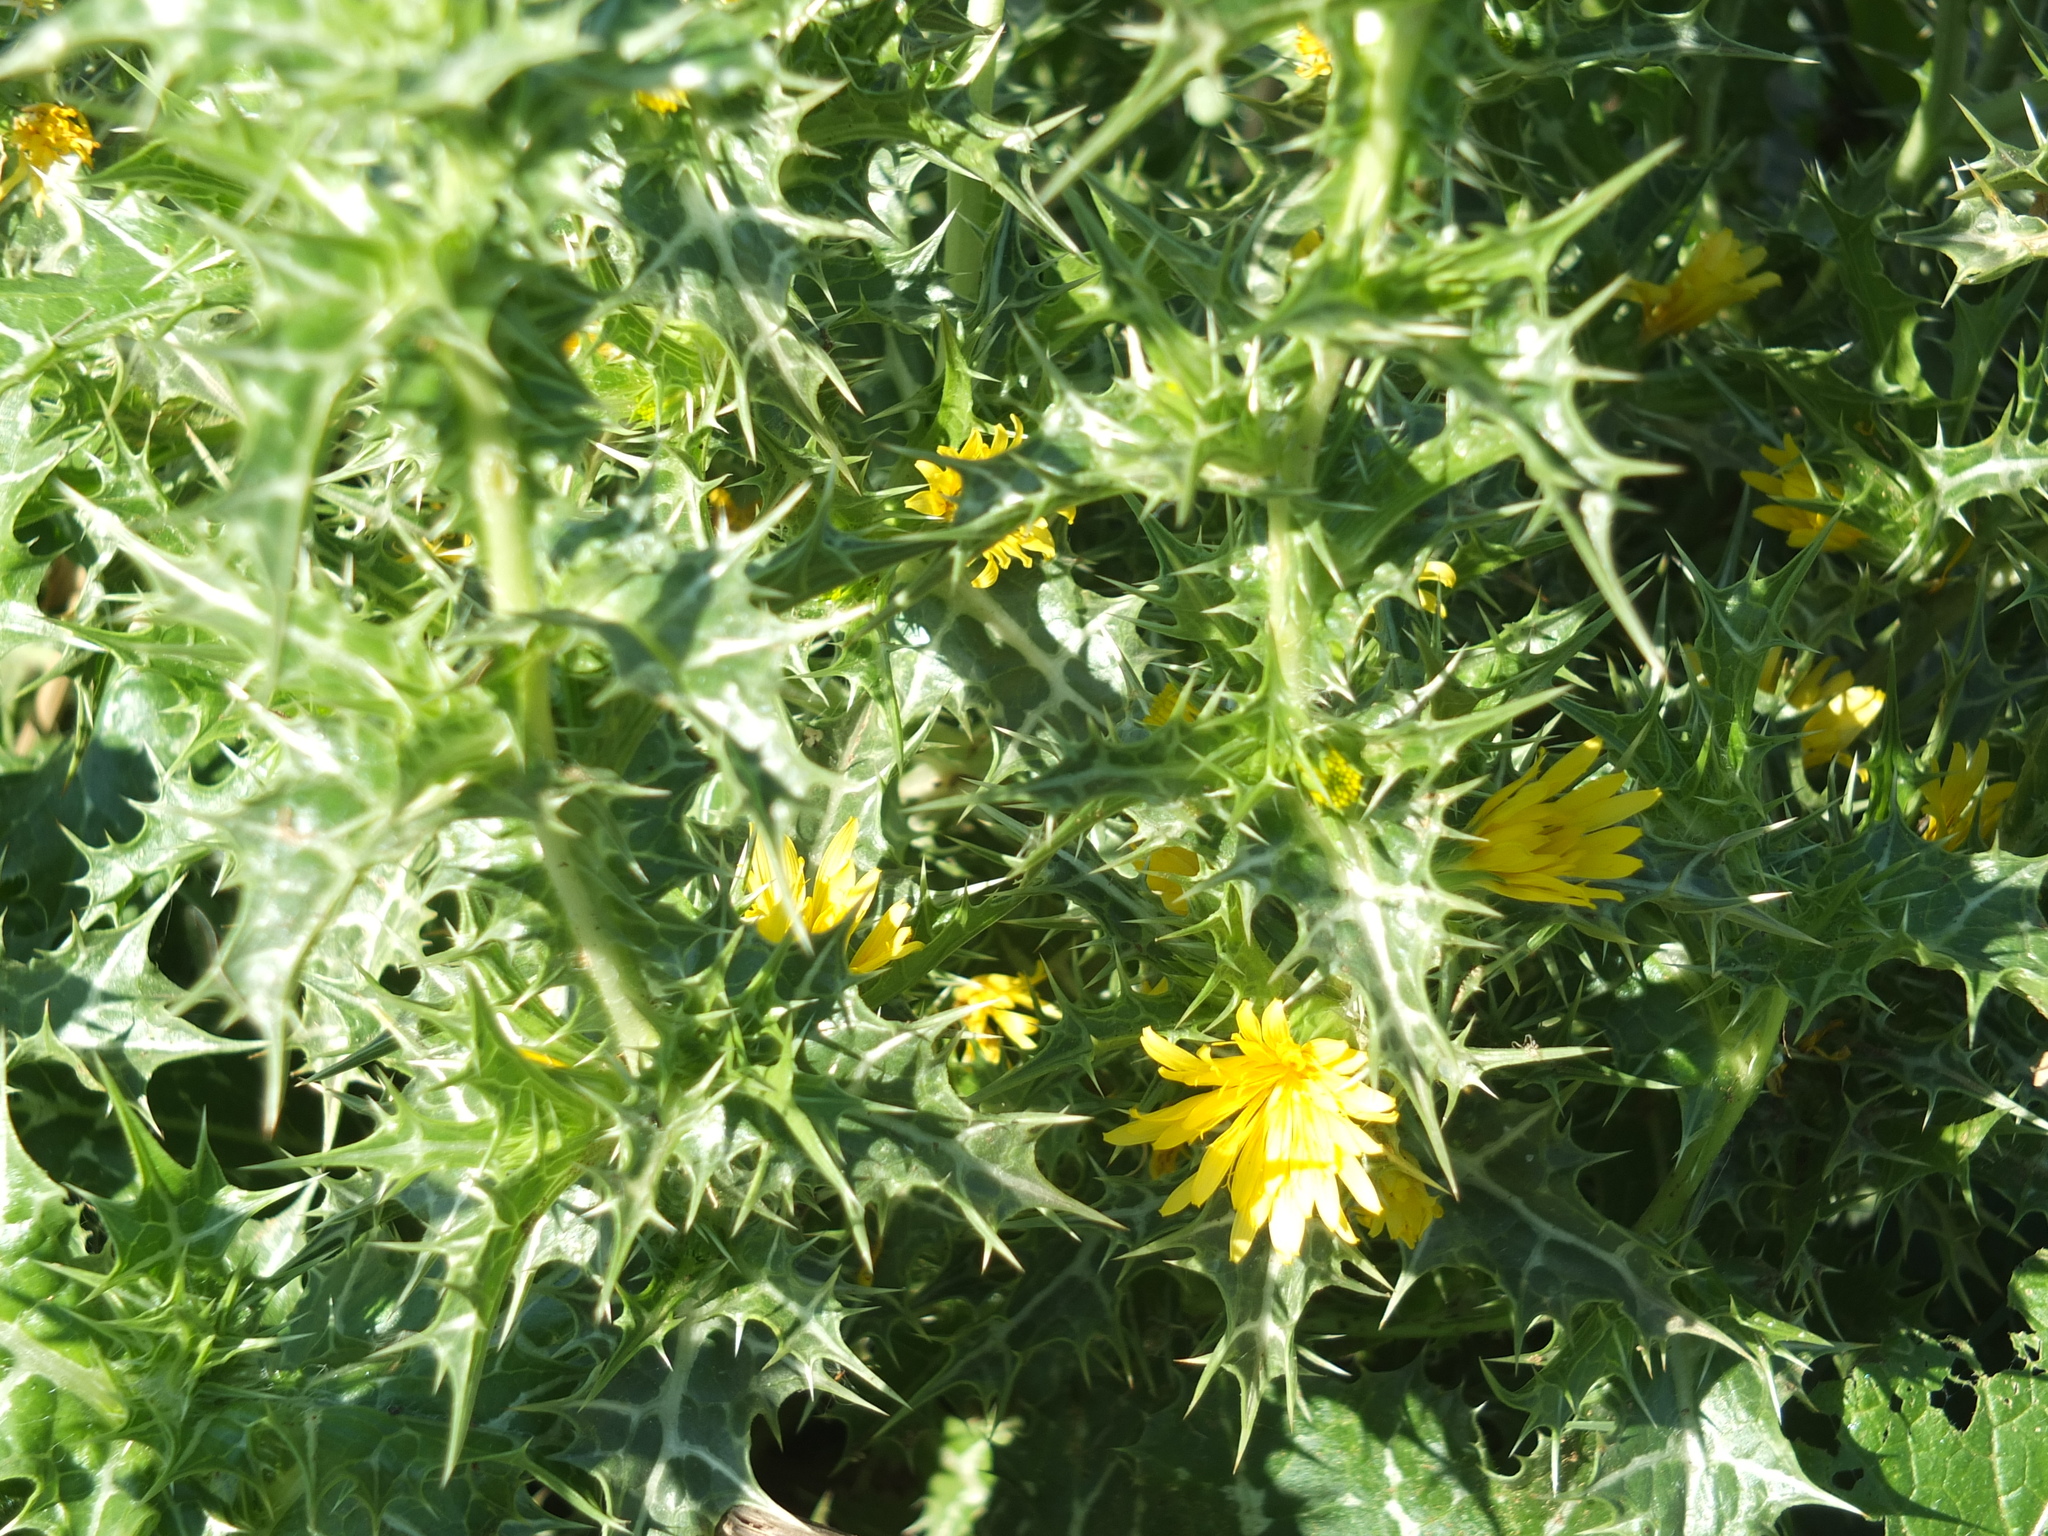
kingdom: Plantae
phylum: Tracheophyta
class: Magnoliopsida
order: Asterales
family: Asteraceae
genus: Scolymus
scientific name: Scolymus hispanicus
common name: Golden thistle
